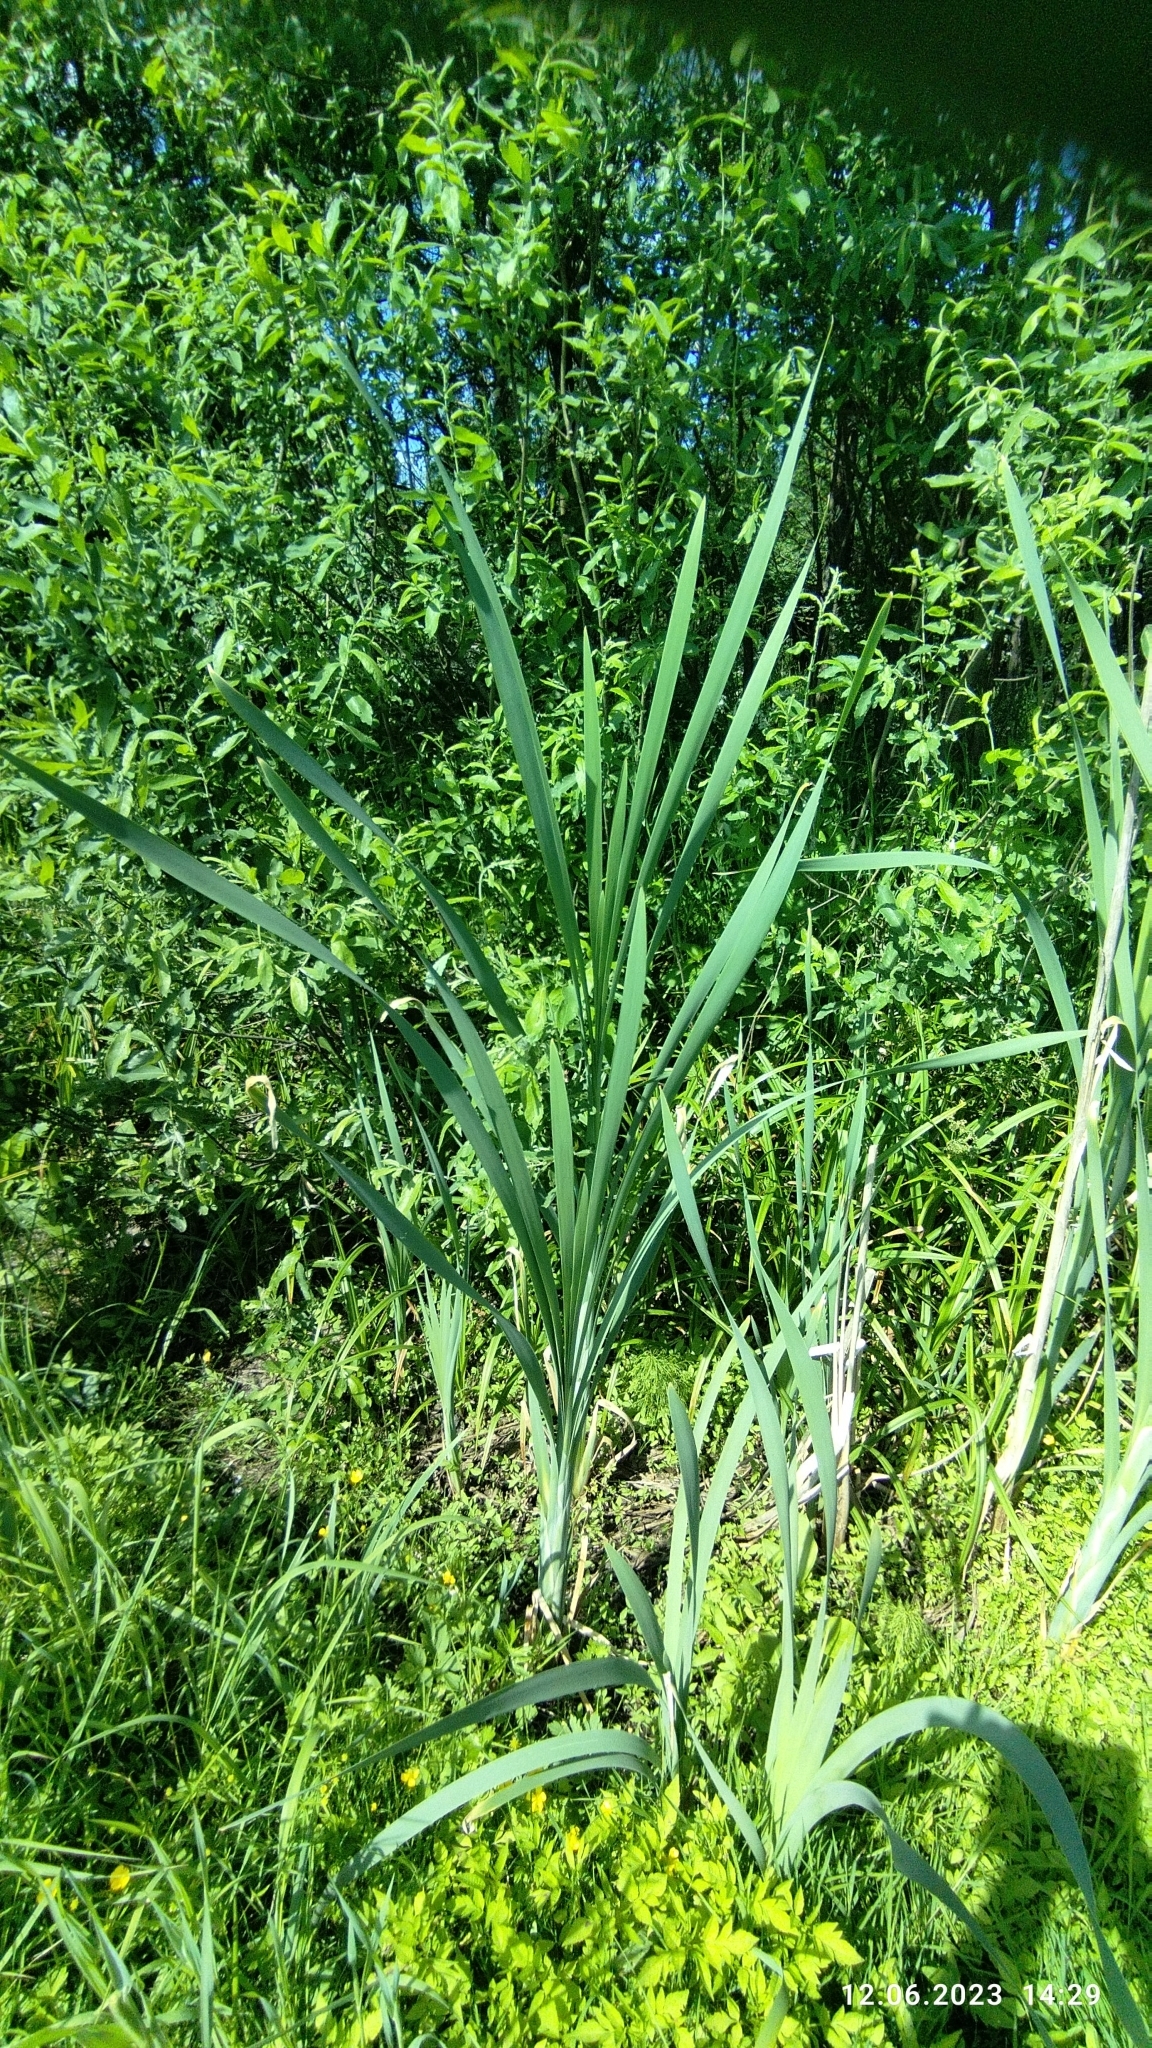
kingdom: Plantae
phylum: Tracheophyta
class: Liliopsida
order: Poales
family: Typhaceae
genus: Typha
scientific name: Typha latifolia
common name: Broadleaf cattail
